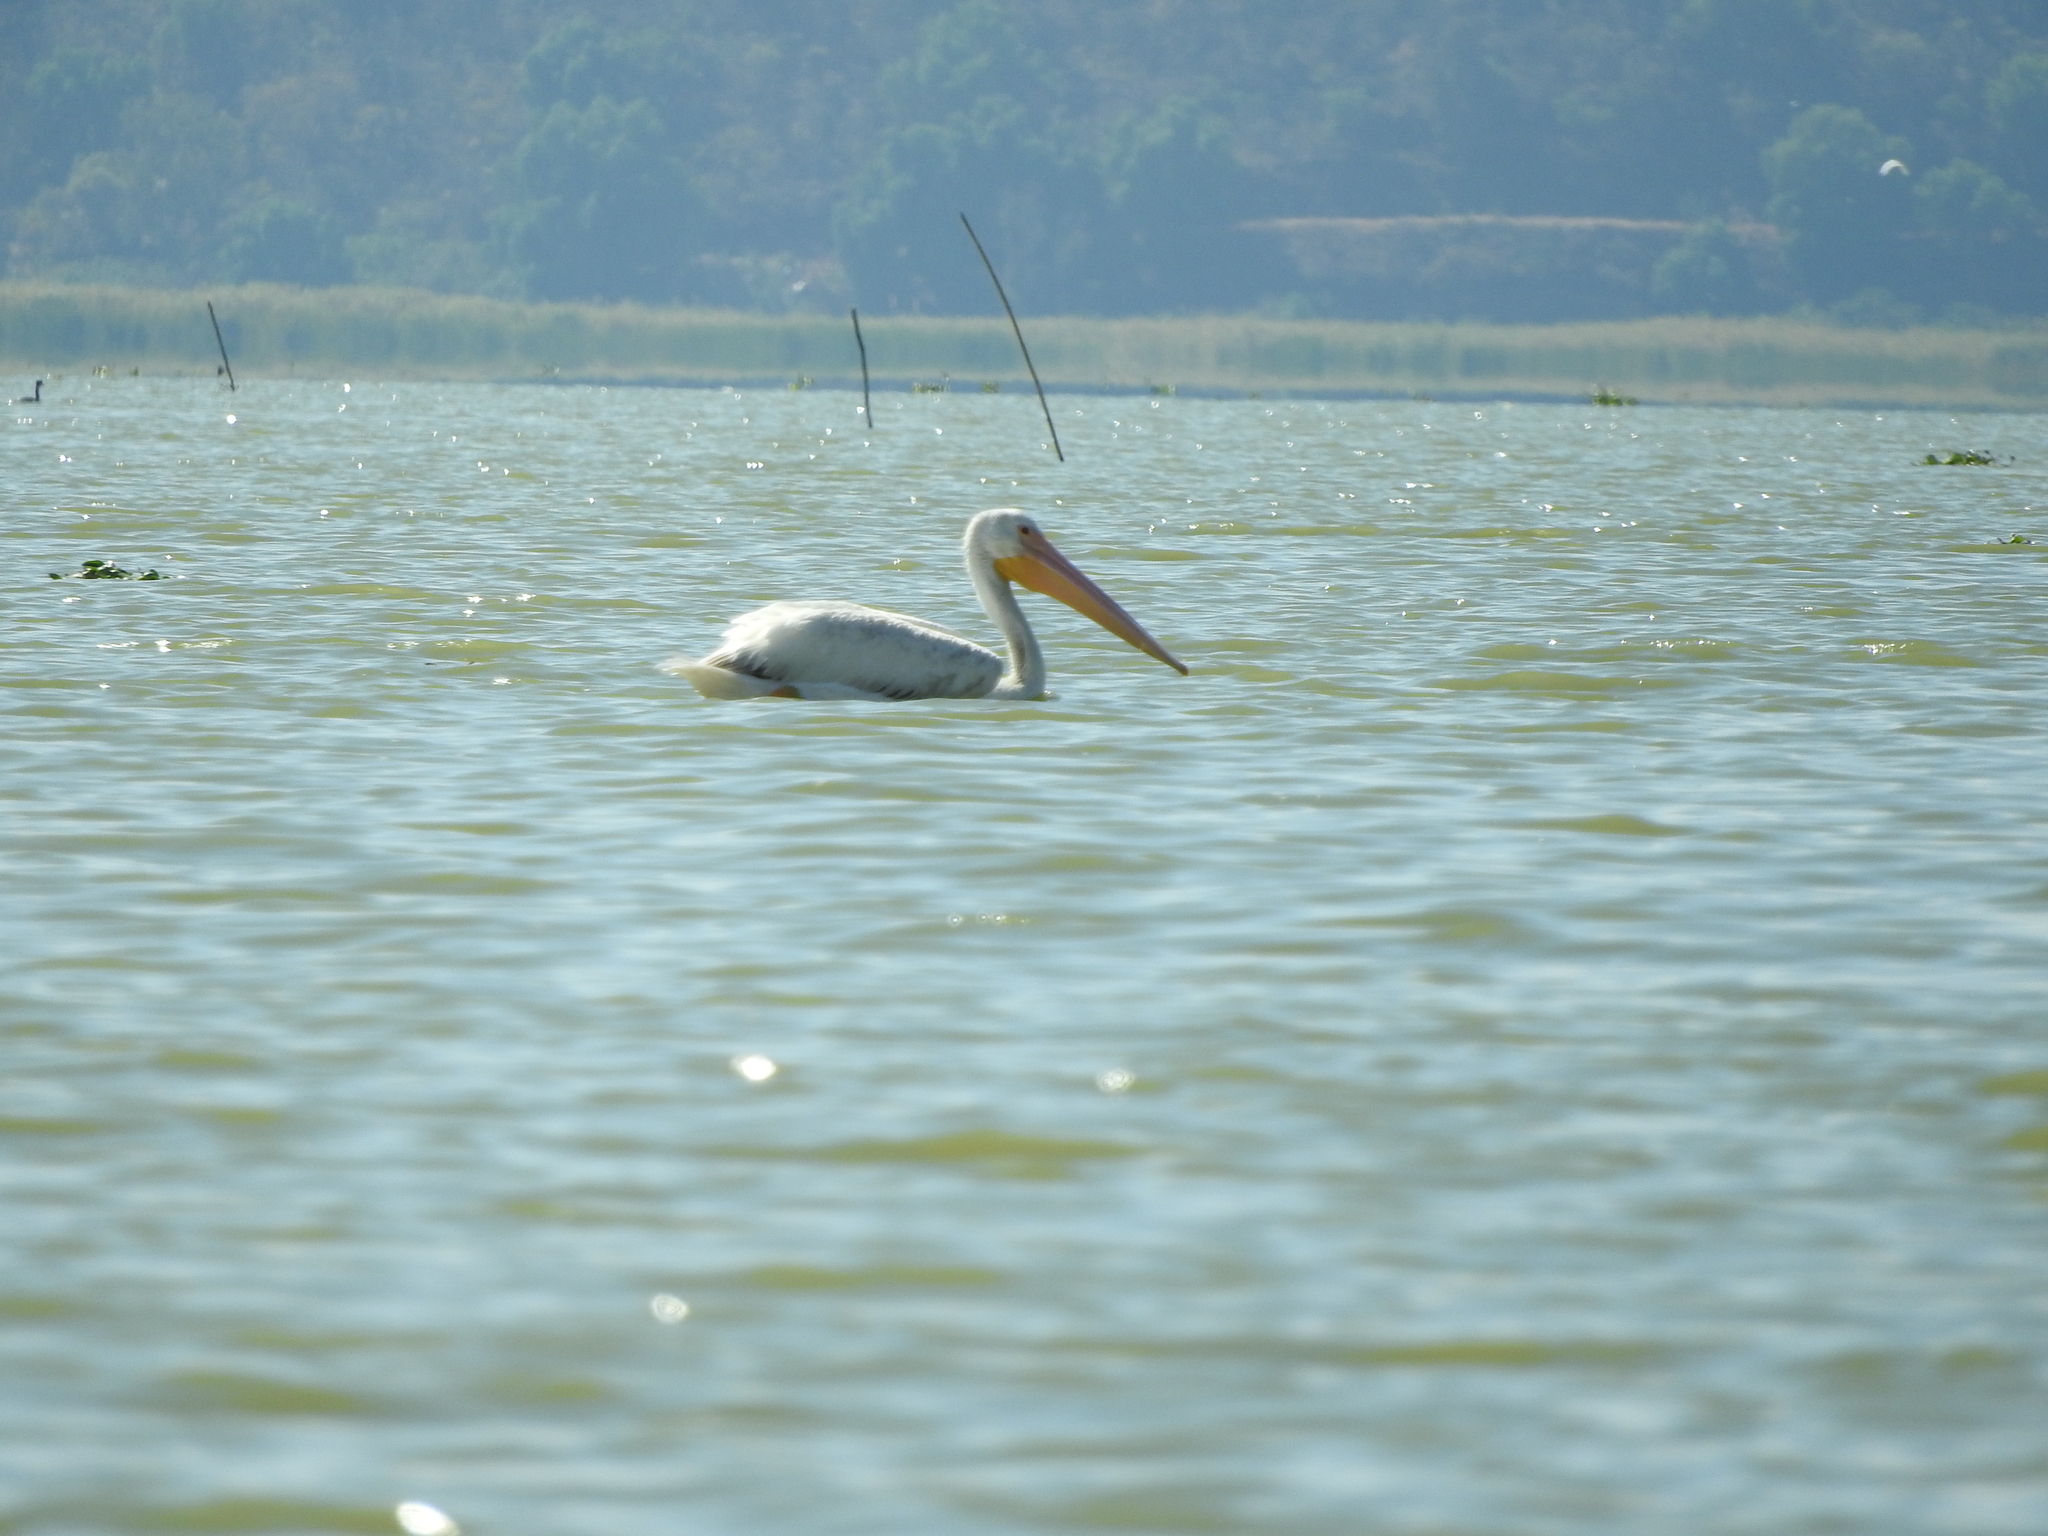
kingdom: Animalia
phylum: Chordata
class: Aves
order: Pelecaniformes
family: Pelecanidae
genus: Pelecanus
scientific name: Pelecanus erythrorhynchos
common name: American white pelican
